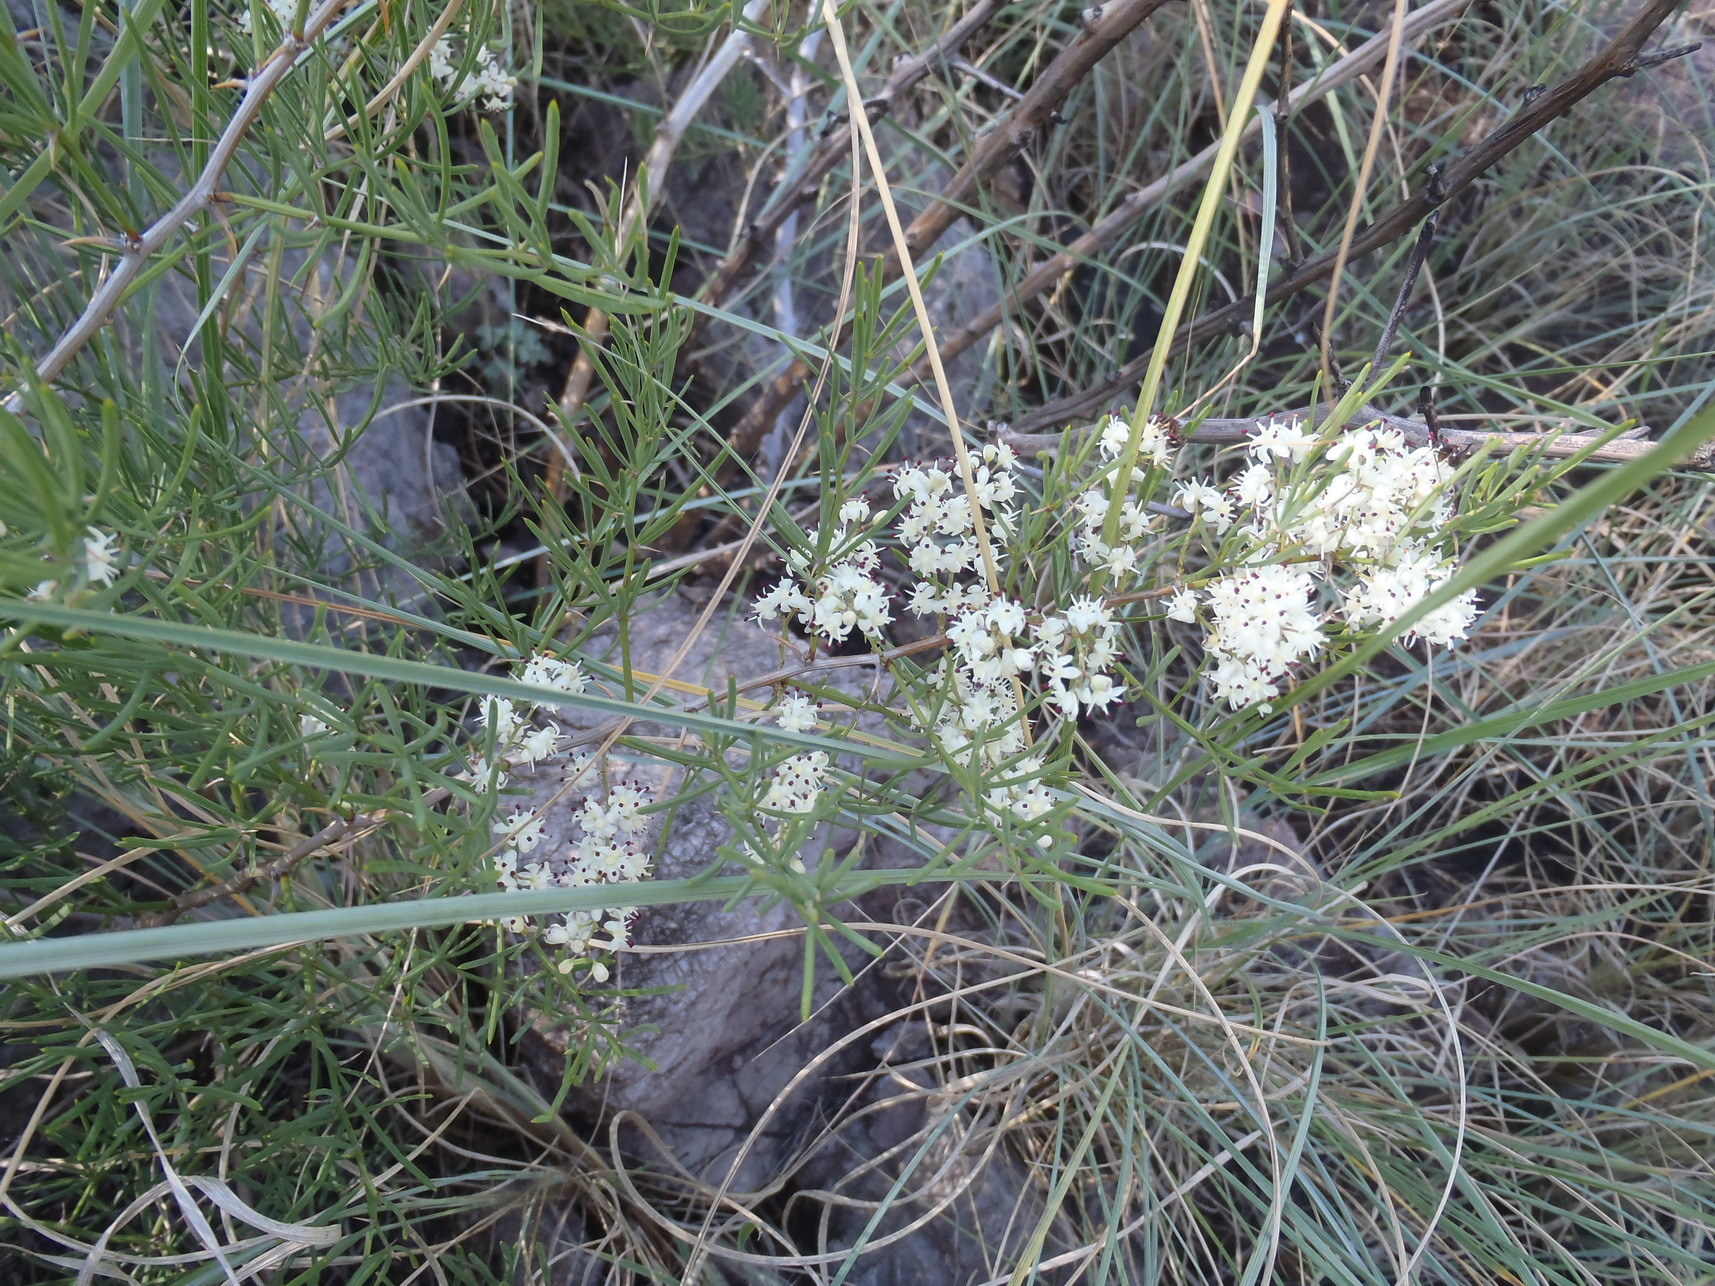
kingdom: Plantae
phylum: Tracheophyta
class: Liliopsida
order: Asparagales
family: Asparagaceae
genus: Asparagus
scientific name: Asparagus angusticladus
